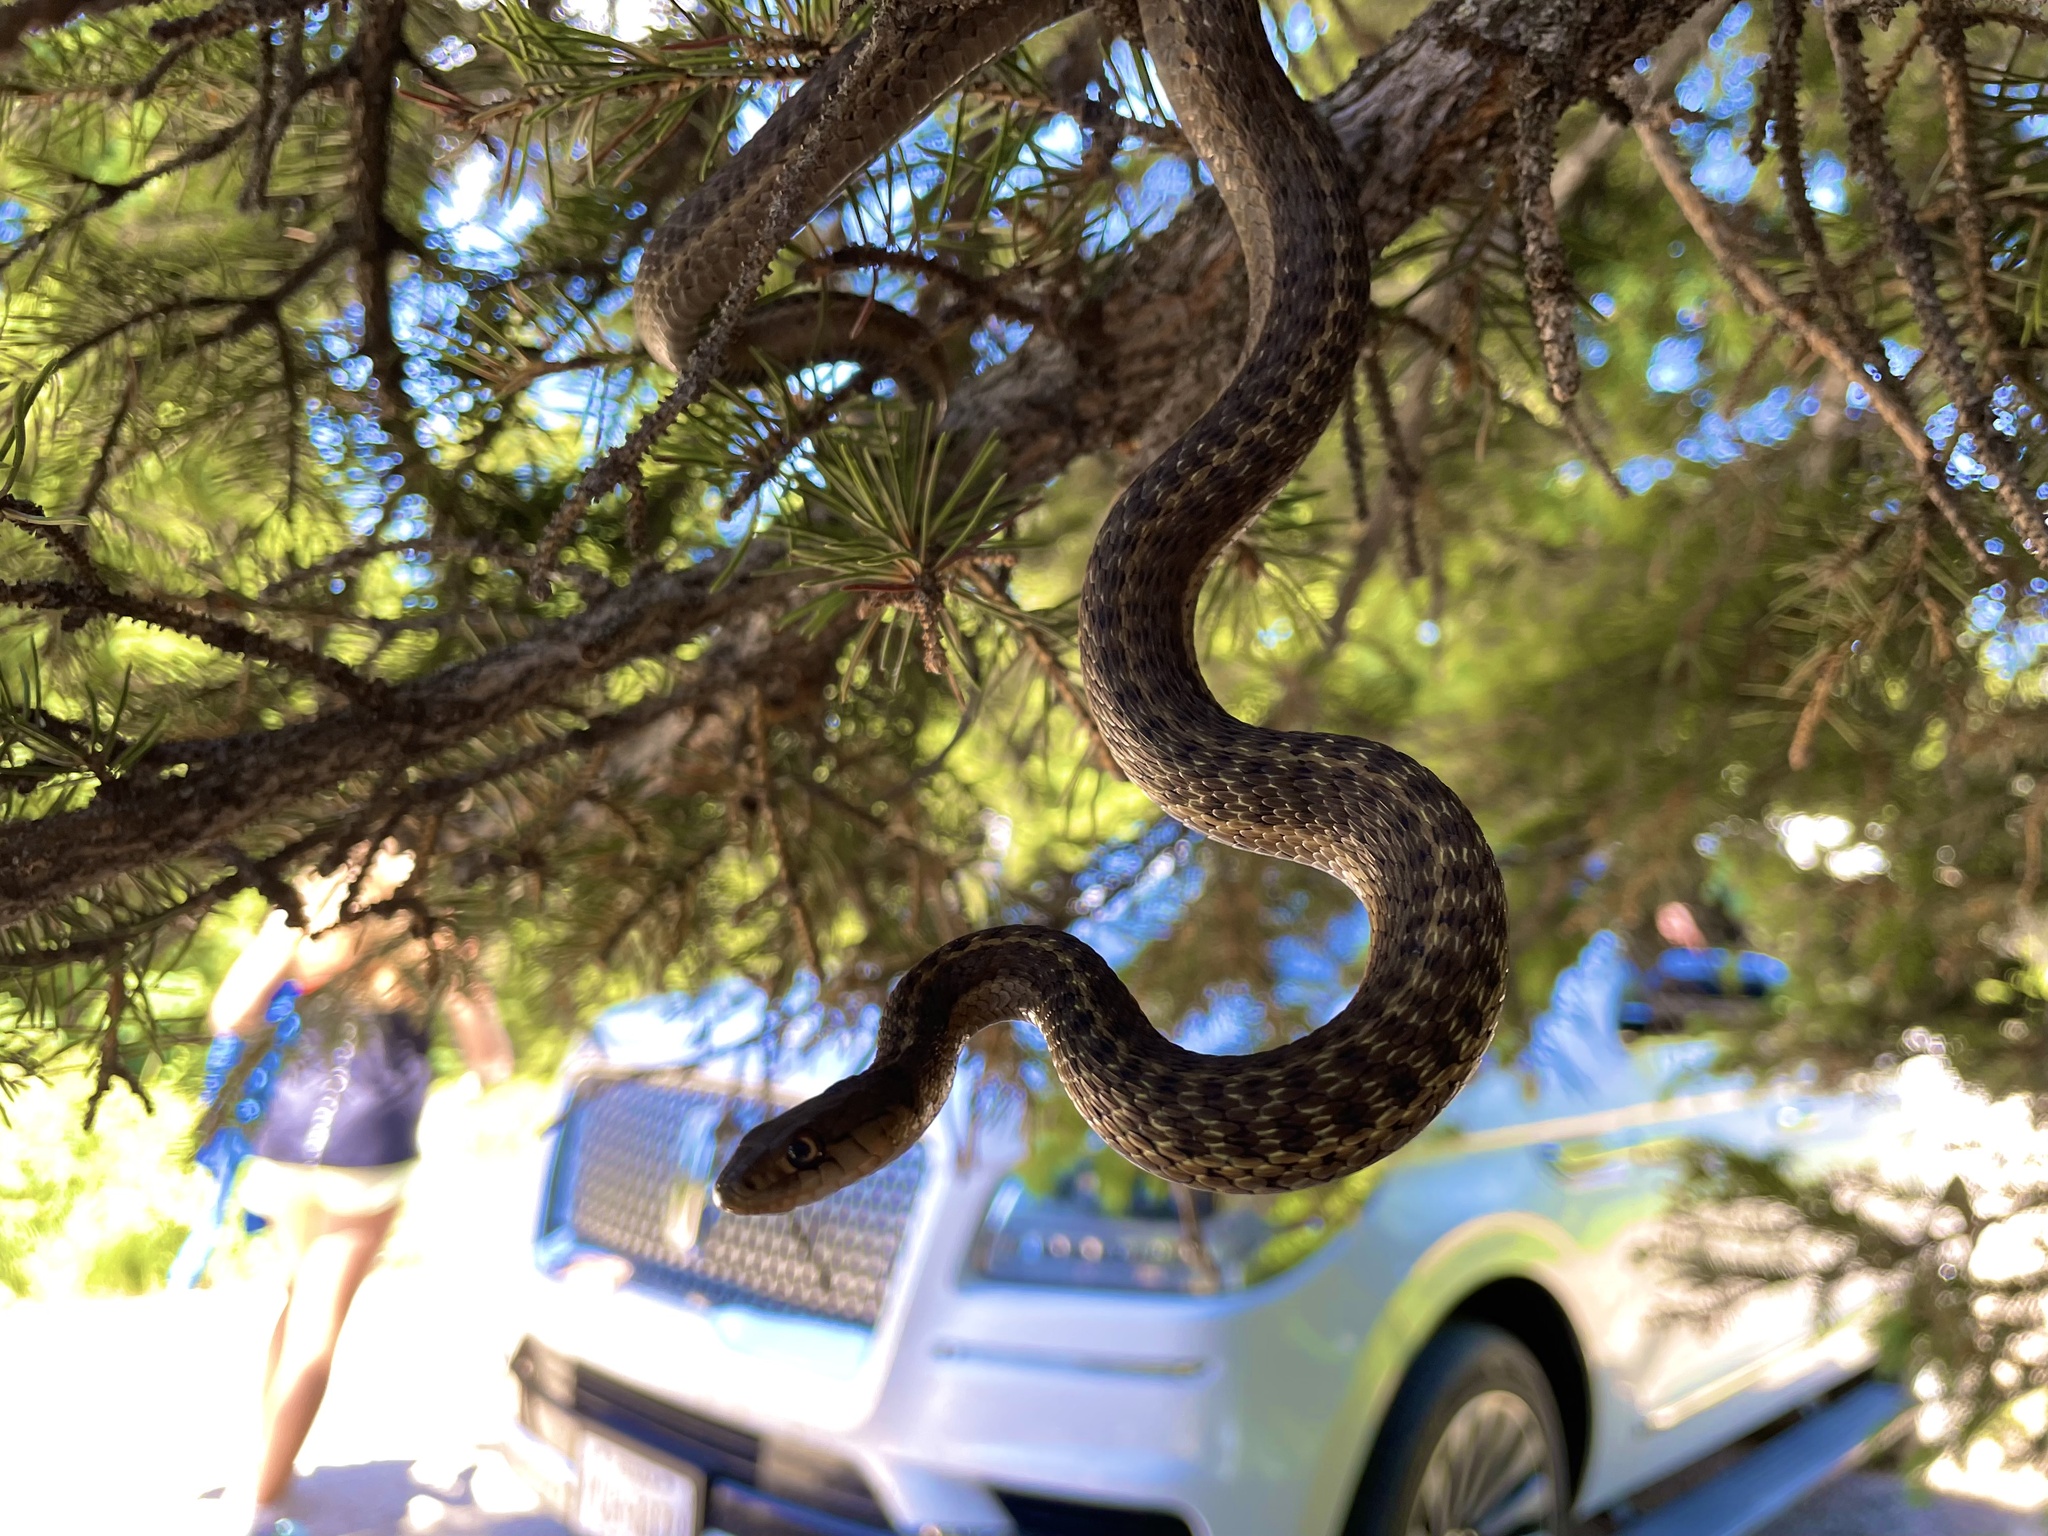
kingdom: Animalia
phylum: Chordata
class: Squamata
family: Colubridae
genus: Thamnophis
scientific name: Thamnophis elegans
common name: Western terrestrial garter snake
